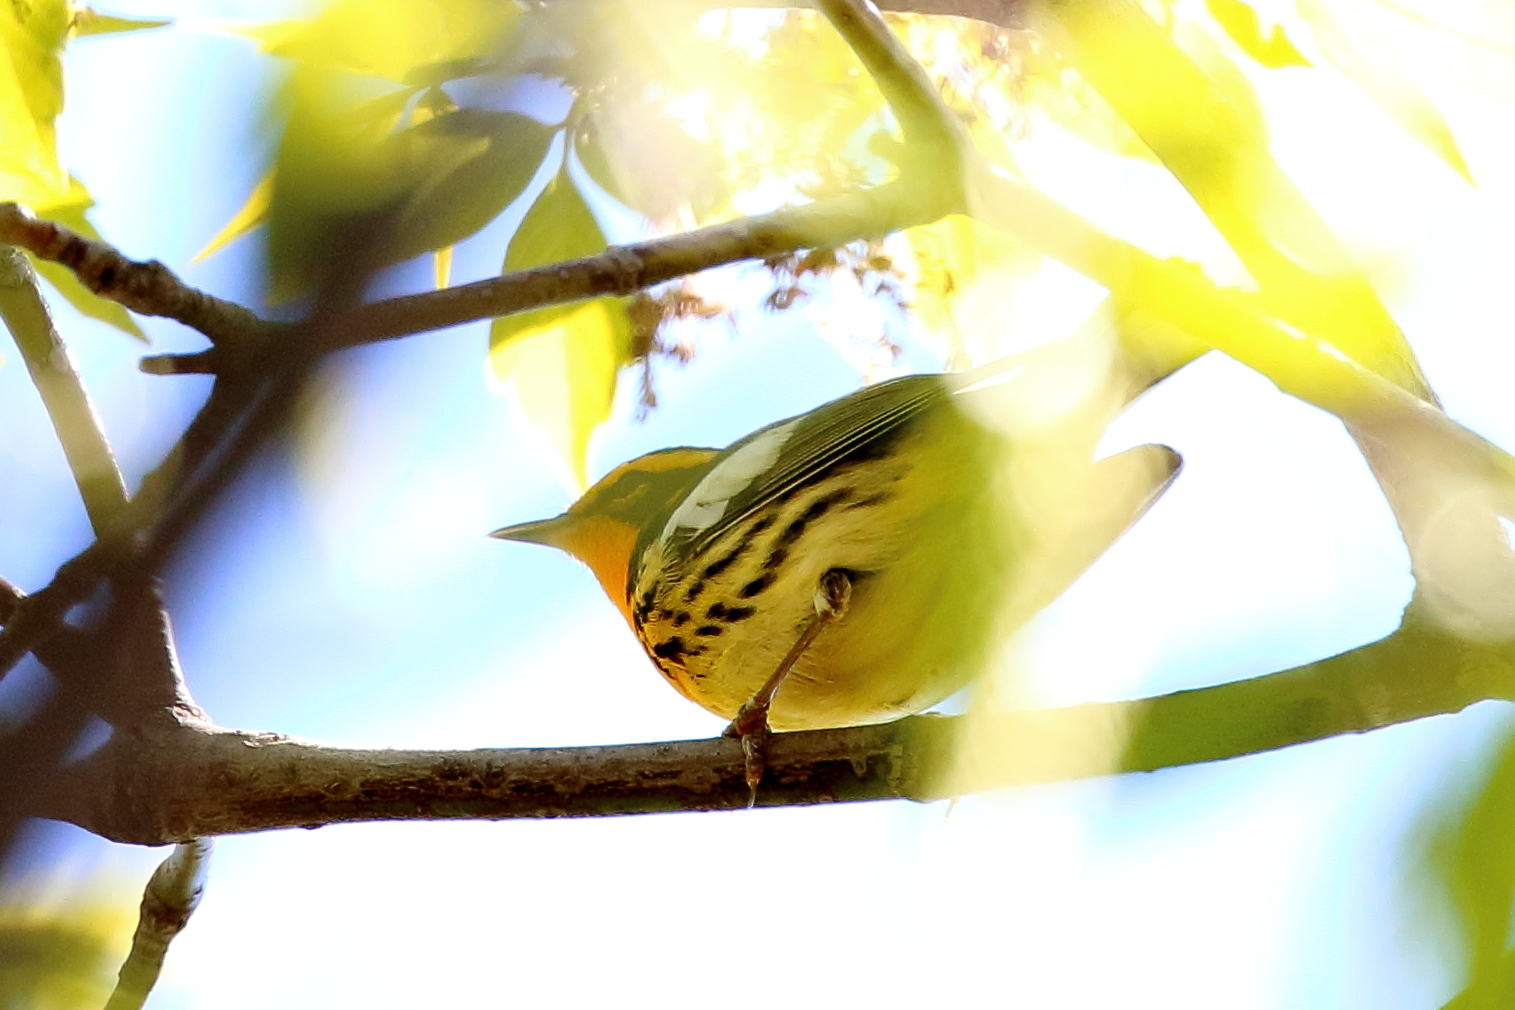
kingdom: Animalia
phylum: Chordata
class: Aves
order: Passeriformes
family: Parulidae
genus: Setophaga
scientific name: Setophaga fusca
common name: Blackburnian warbler
